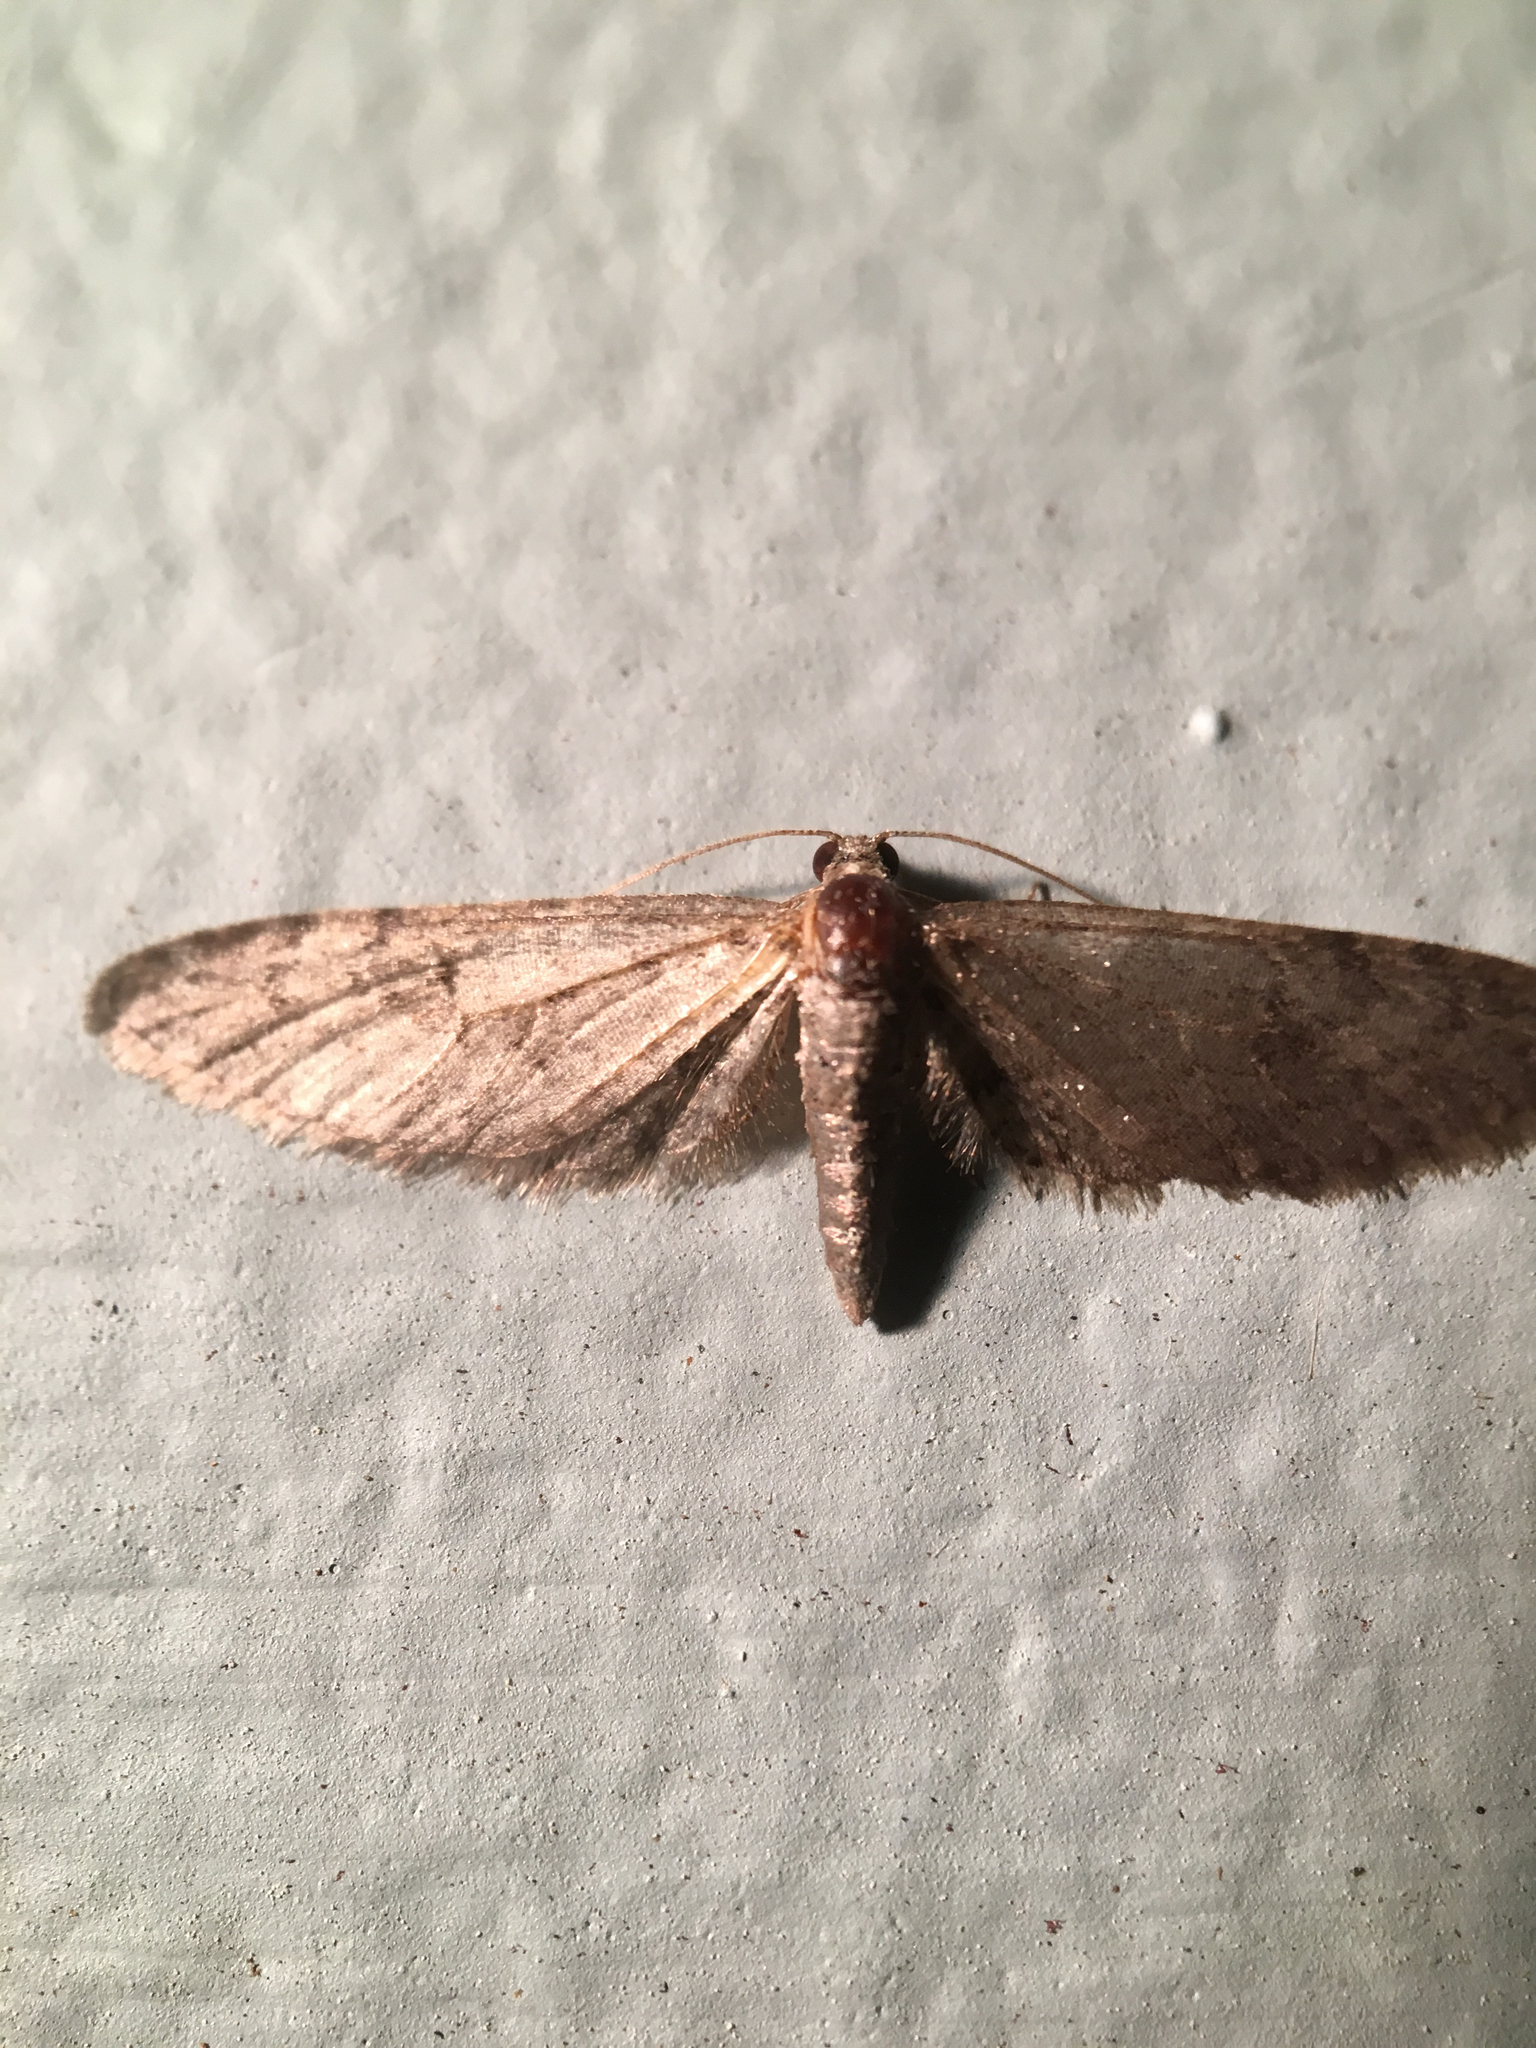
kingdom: Animalia
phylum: Arthropoda
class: Insecta
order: Lepidoptera
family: Geometridae
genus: Eupithecia
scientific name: Eupithecia
